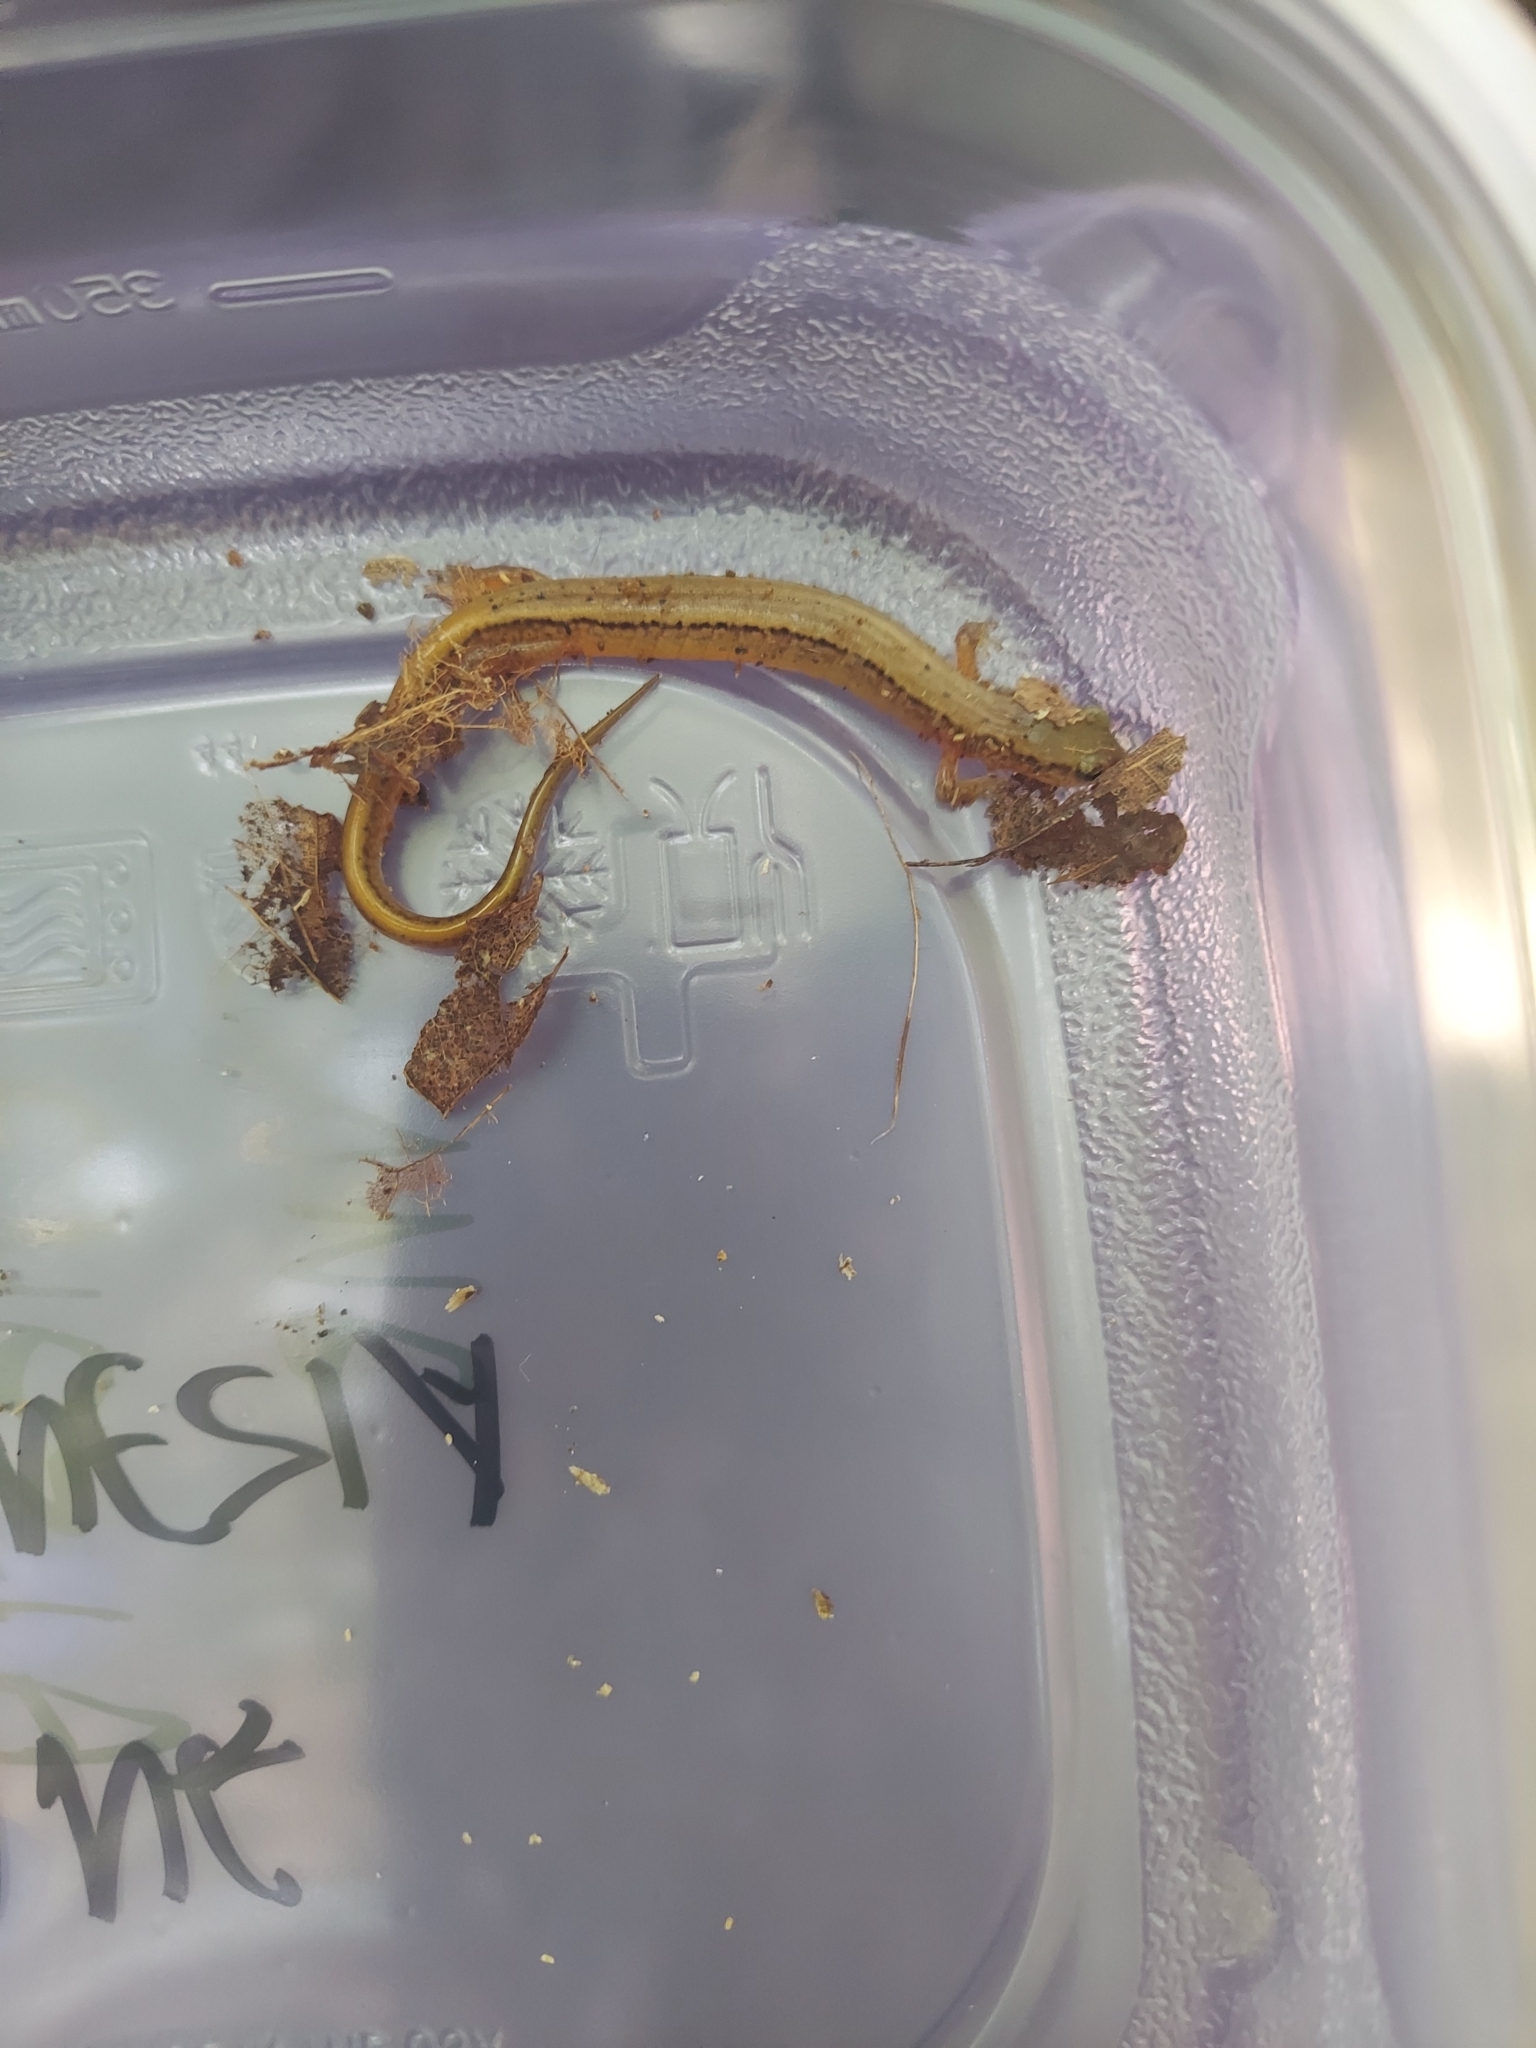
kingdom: Animalia
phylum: Chordata
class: Amphibia
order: Caudata
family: Plethodontidae
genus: Eurycea
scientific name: Eurycea bislineata
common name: Northern two-lined salamander
